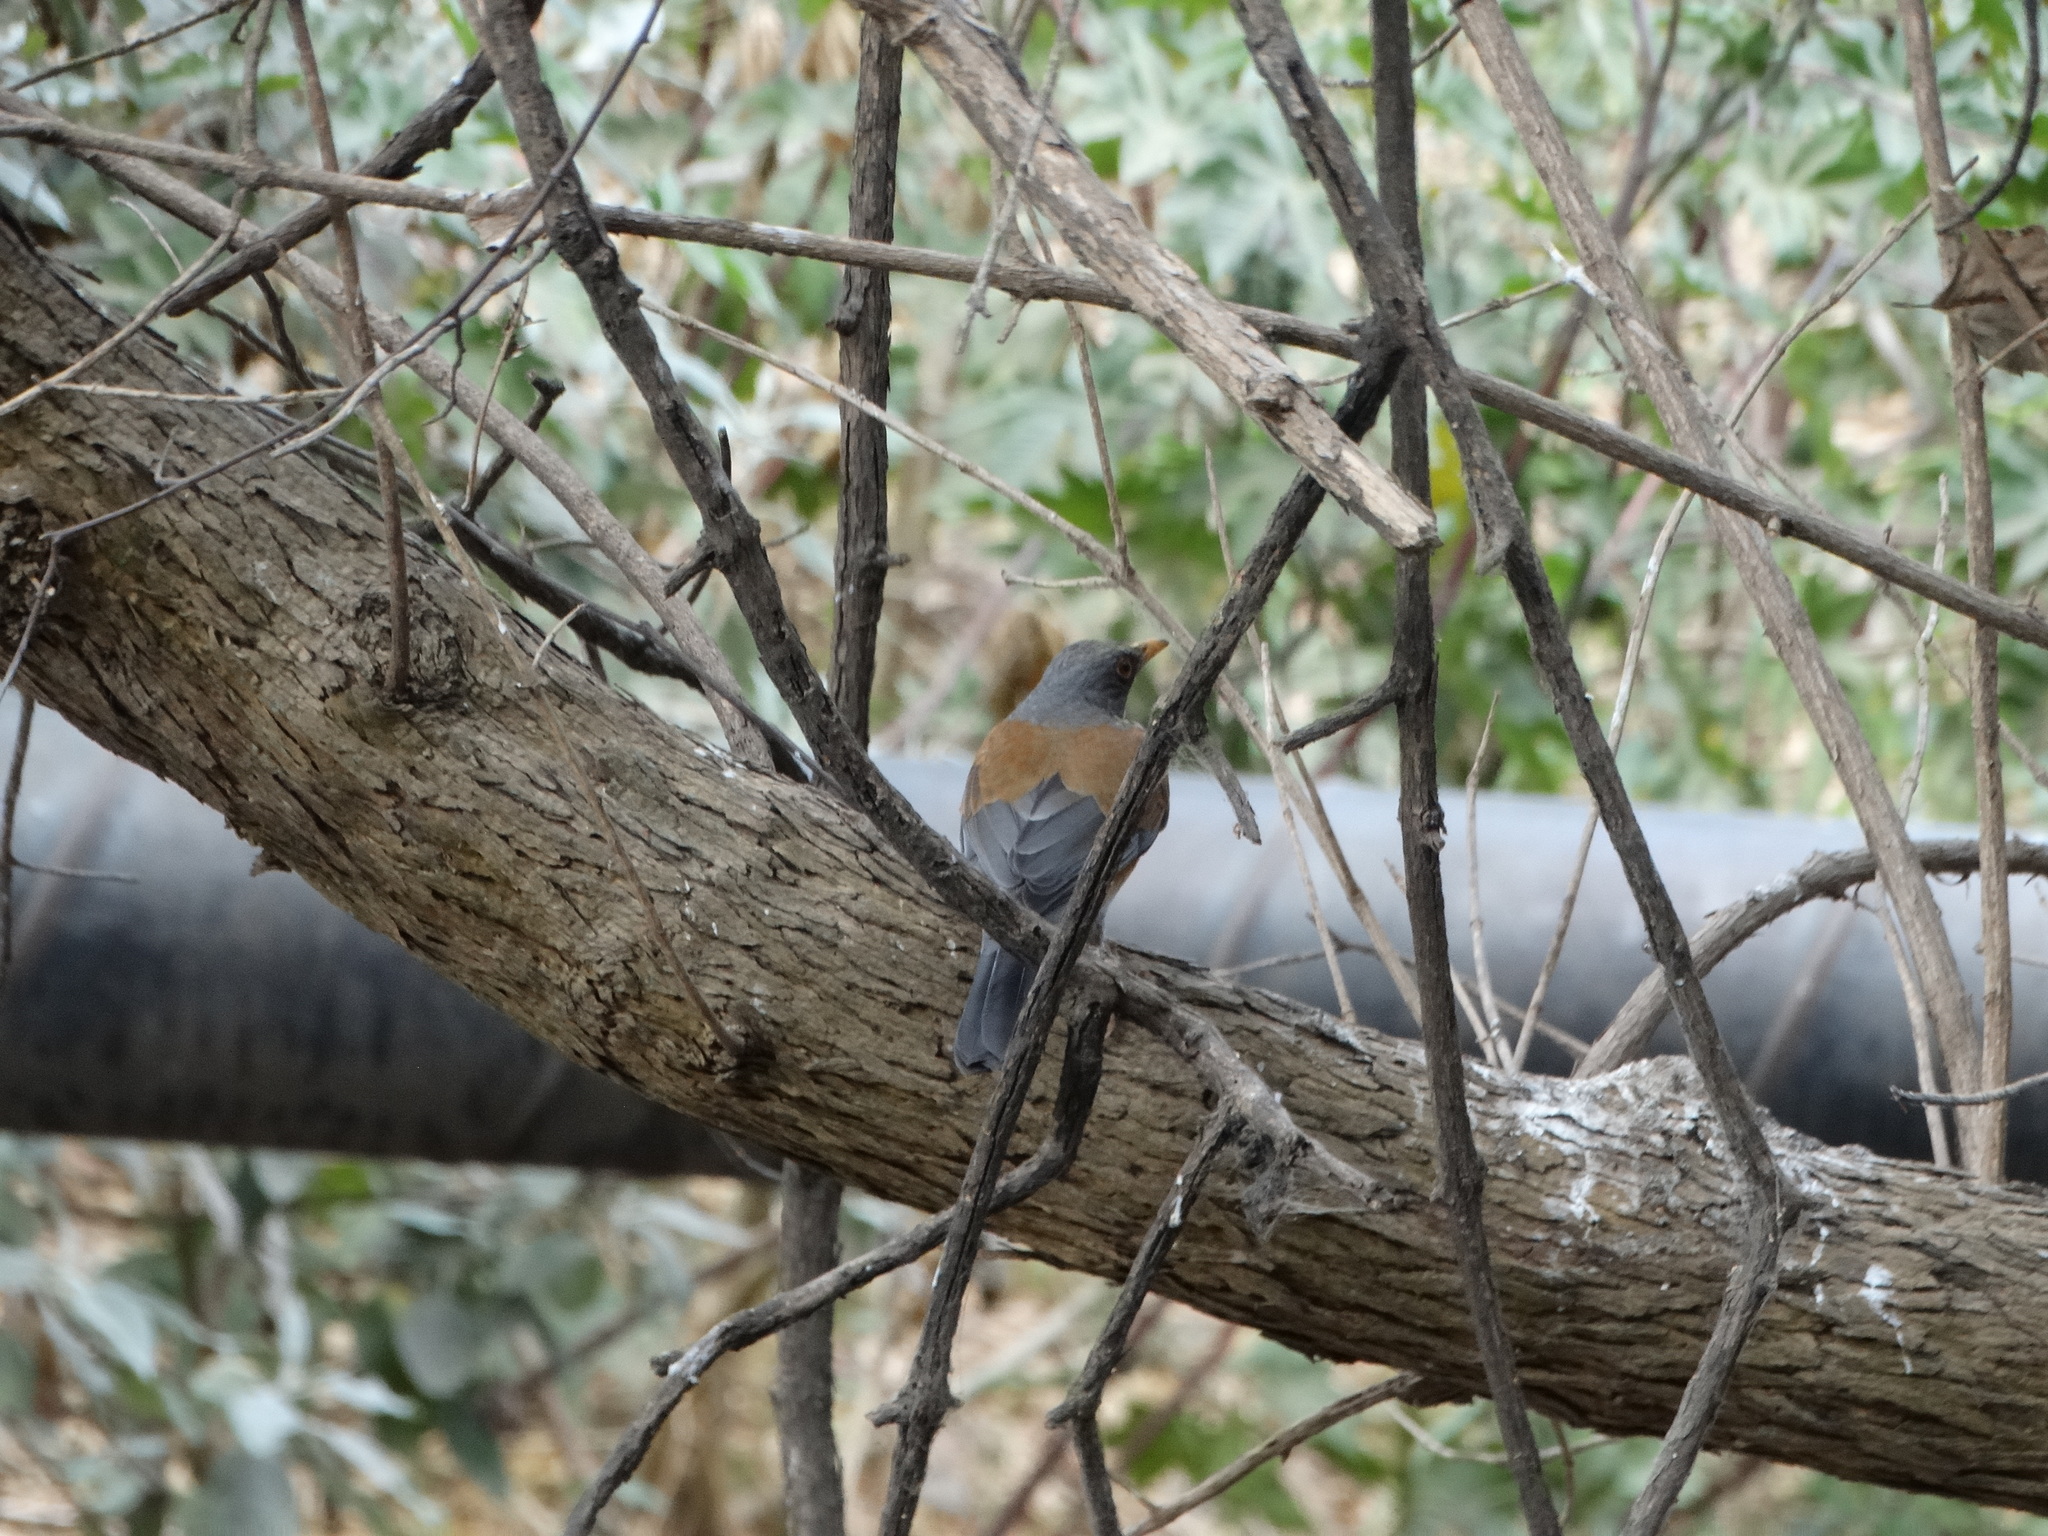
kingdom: Animalia
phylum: Chordata
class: Aves
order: Passeriformes
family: Turdidae
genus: Turdus
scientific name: Turdus rufopalliatus
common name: Rufous-backed robin
